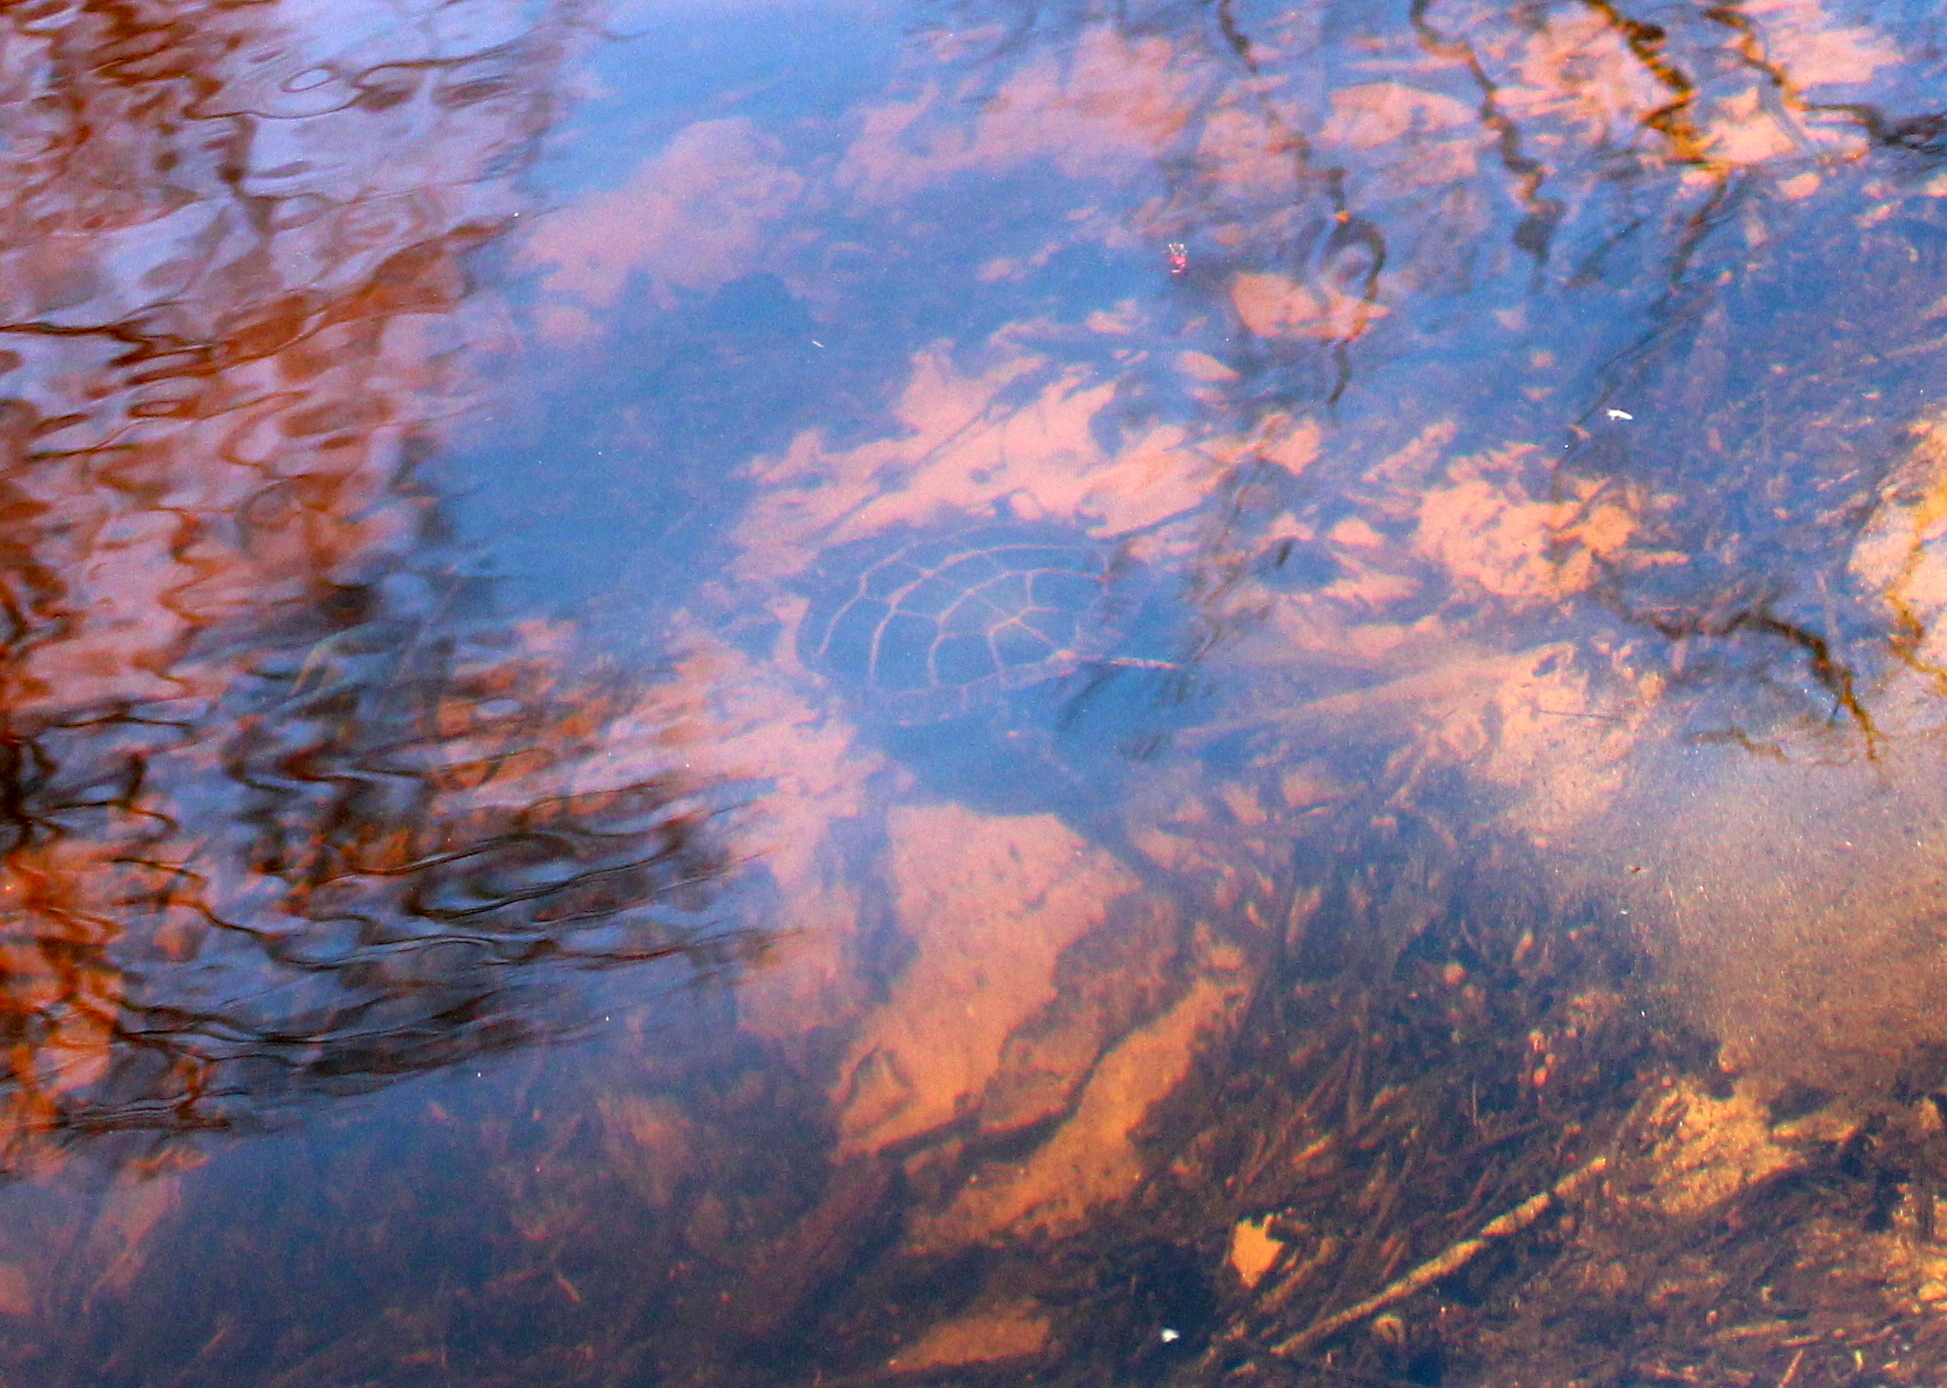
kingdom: Animalia
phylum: Chordata
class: Testudines
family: Emydidae
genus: Chrysemys
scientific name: Chrysemys picta
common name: Painted turtle
